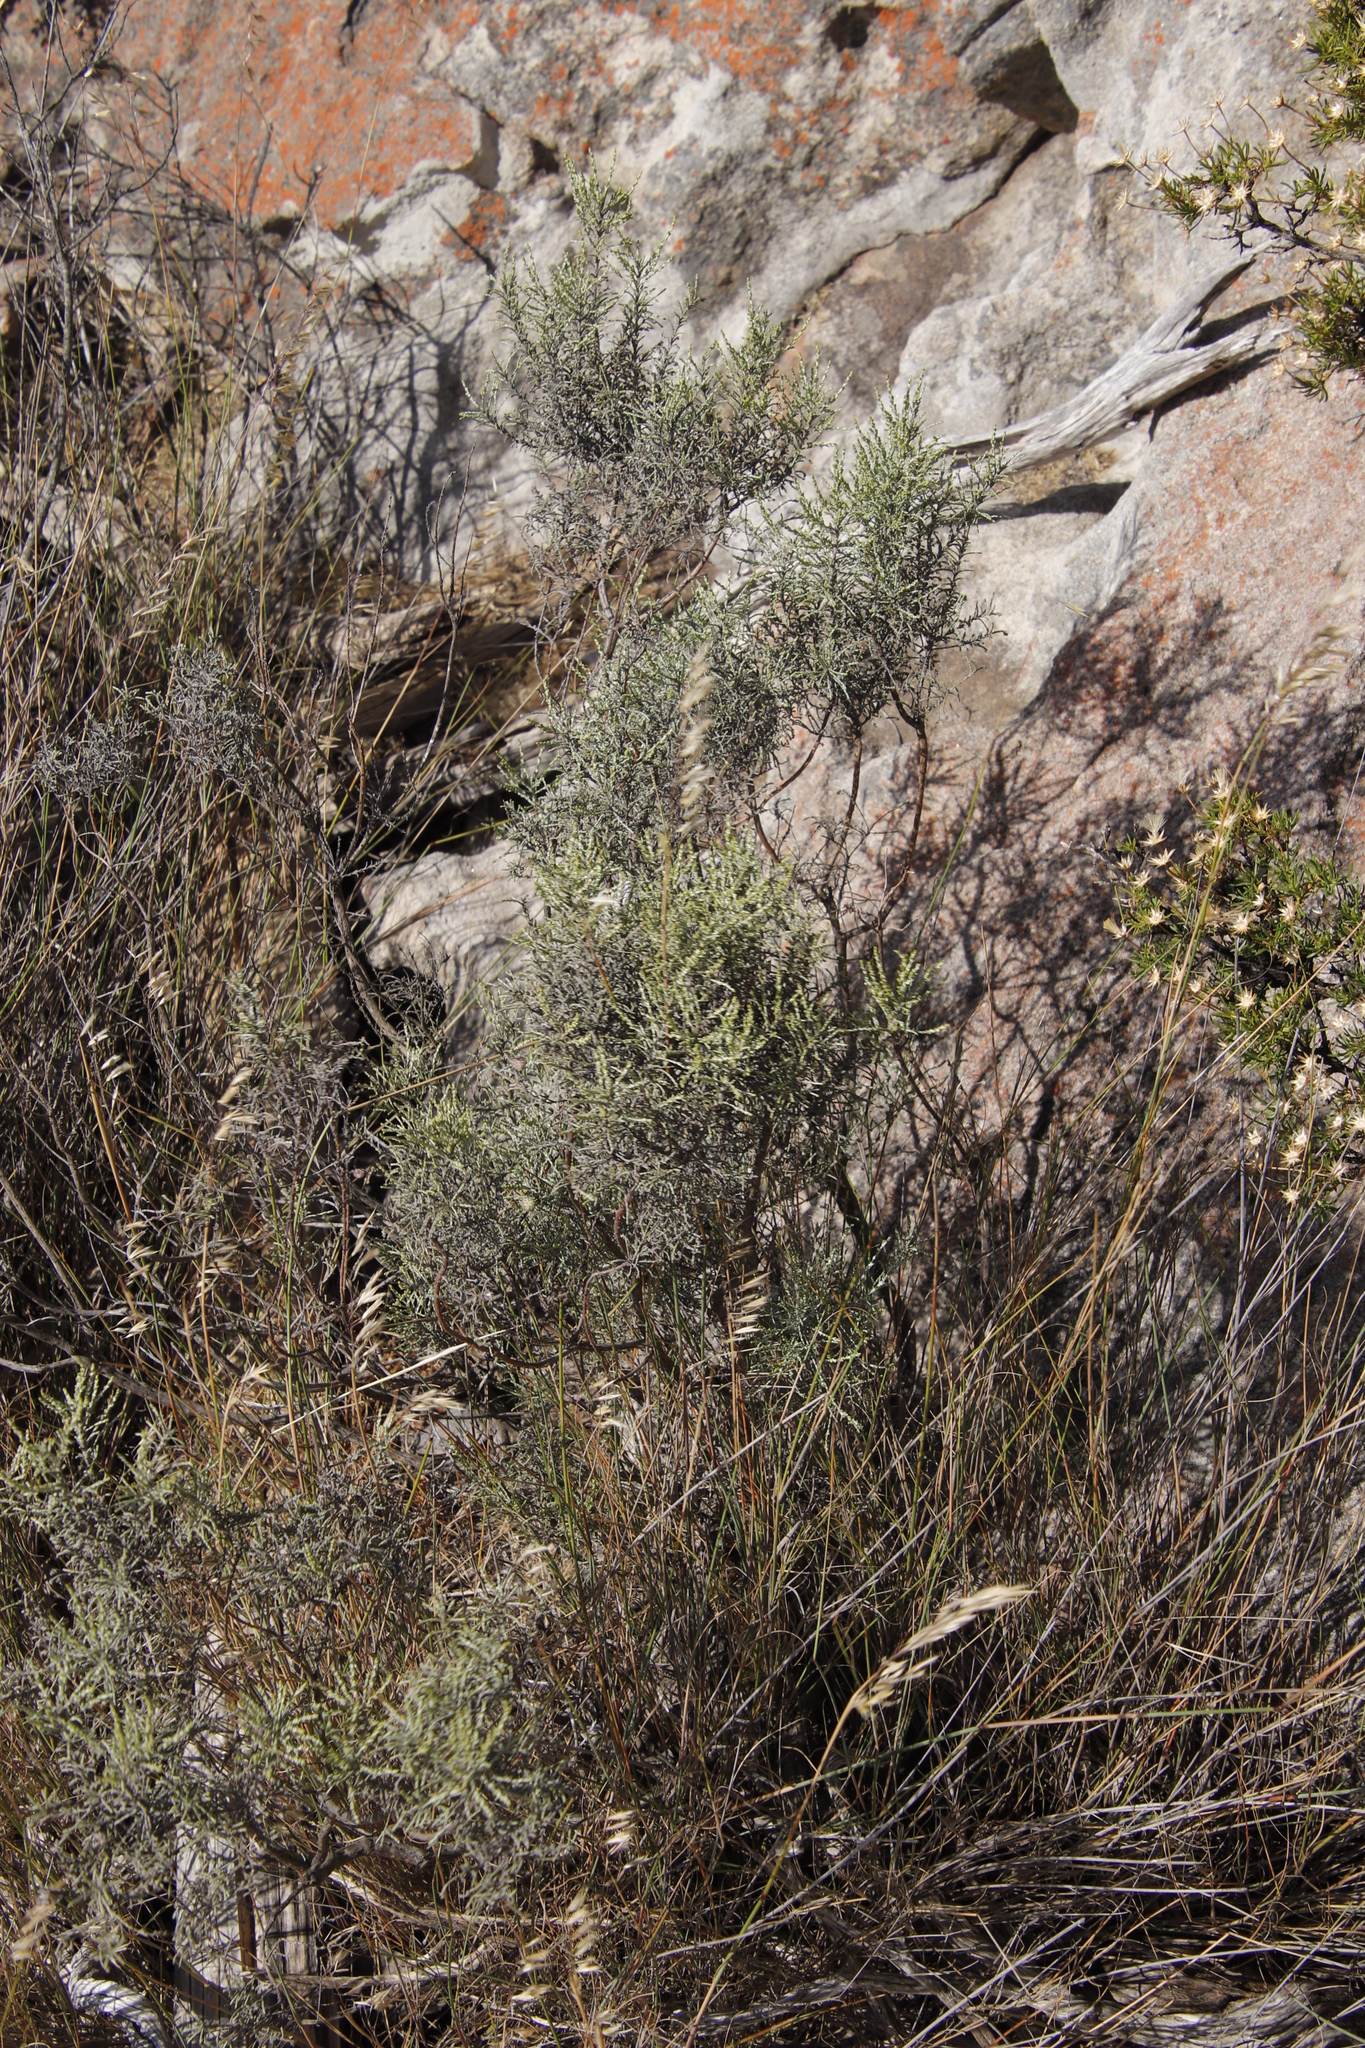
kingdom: Plantae
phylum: Tracheophyta
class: Magnoliopsida
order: Asterales
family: Asteraceae
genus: Dicerothamnus
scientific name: Dicerothamnus rhinocerotis
